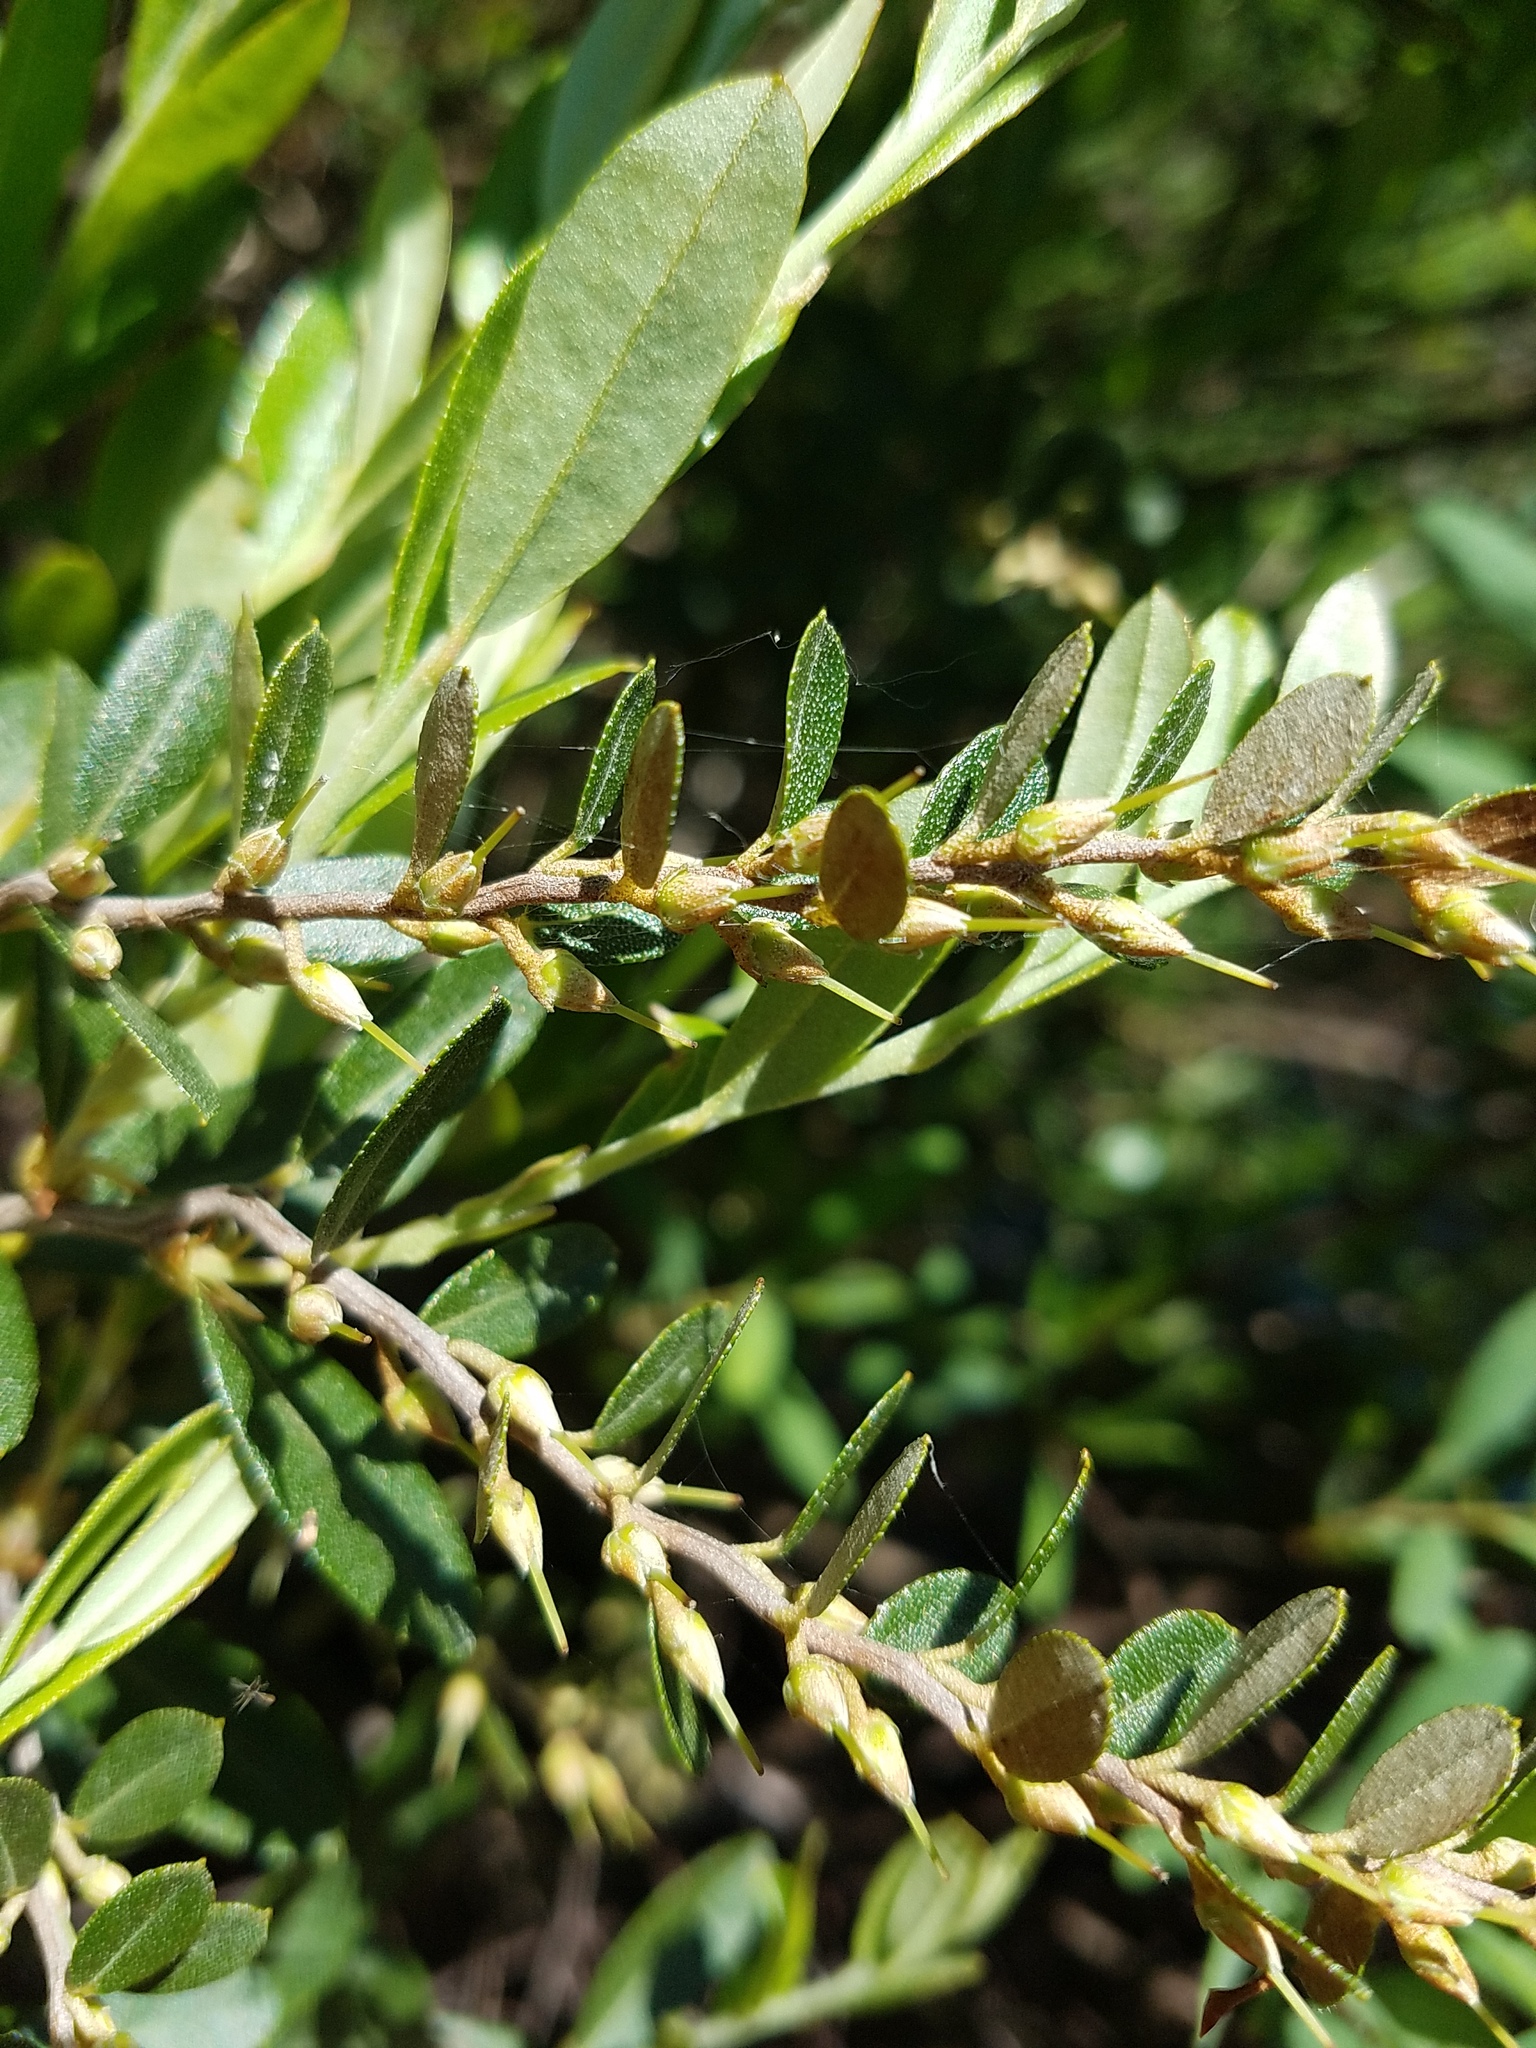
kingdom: Plantae
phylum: Tracheophyta
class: Magnoliopsida
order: Ericales
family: Ericaceae
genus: Chamaedaphne
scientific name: Chamaedaphne calyculata
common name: Leatherleaf
